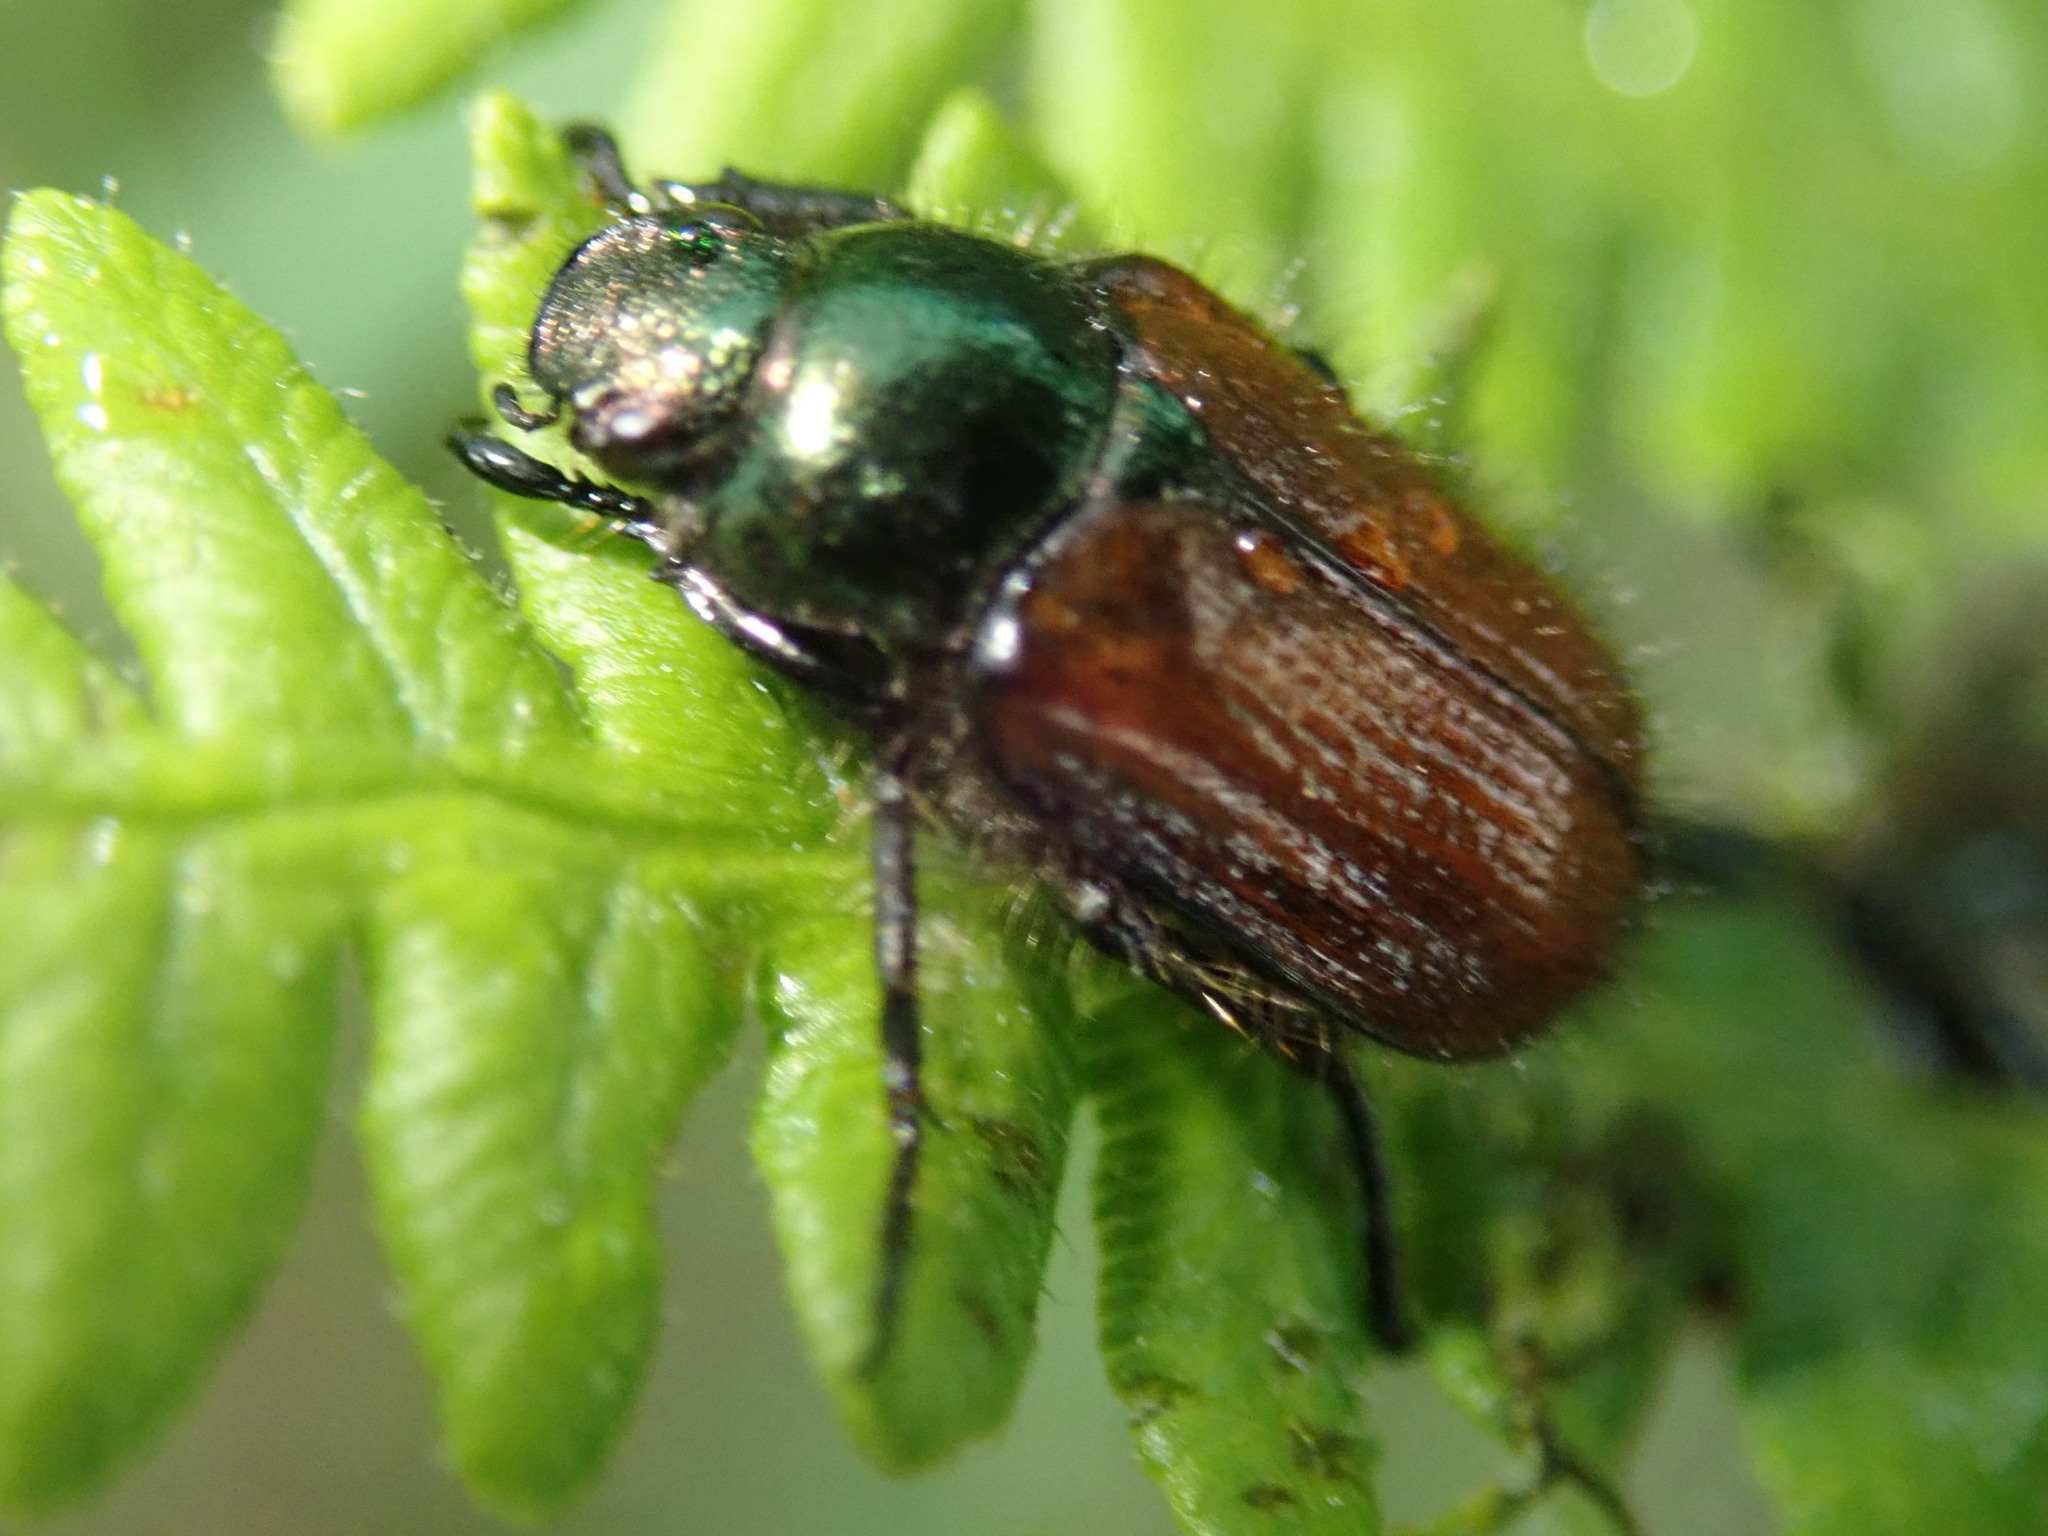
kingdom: Animalia
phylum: Arthropoda
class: Insecta
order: Coleoptera
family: Scarabaeidae
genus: Phyllopertha
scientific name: Phyllopertha horticola
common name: Garden chafer
